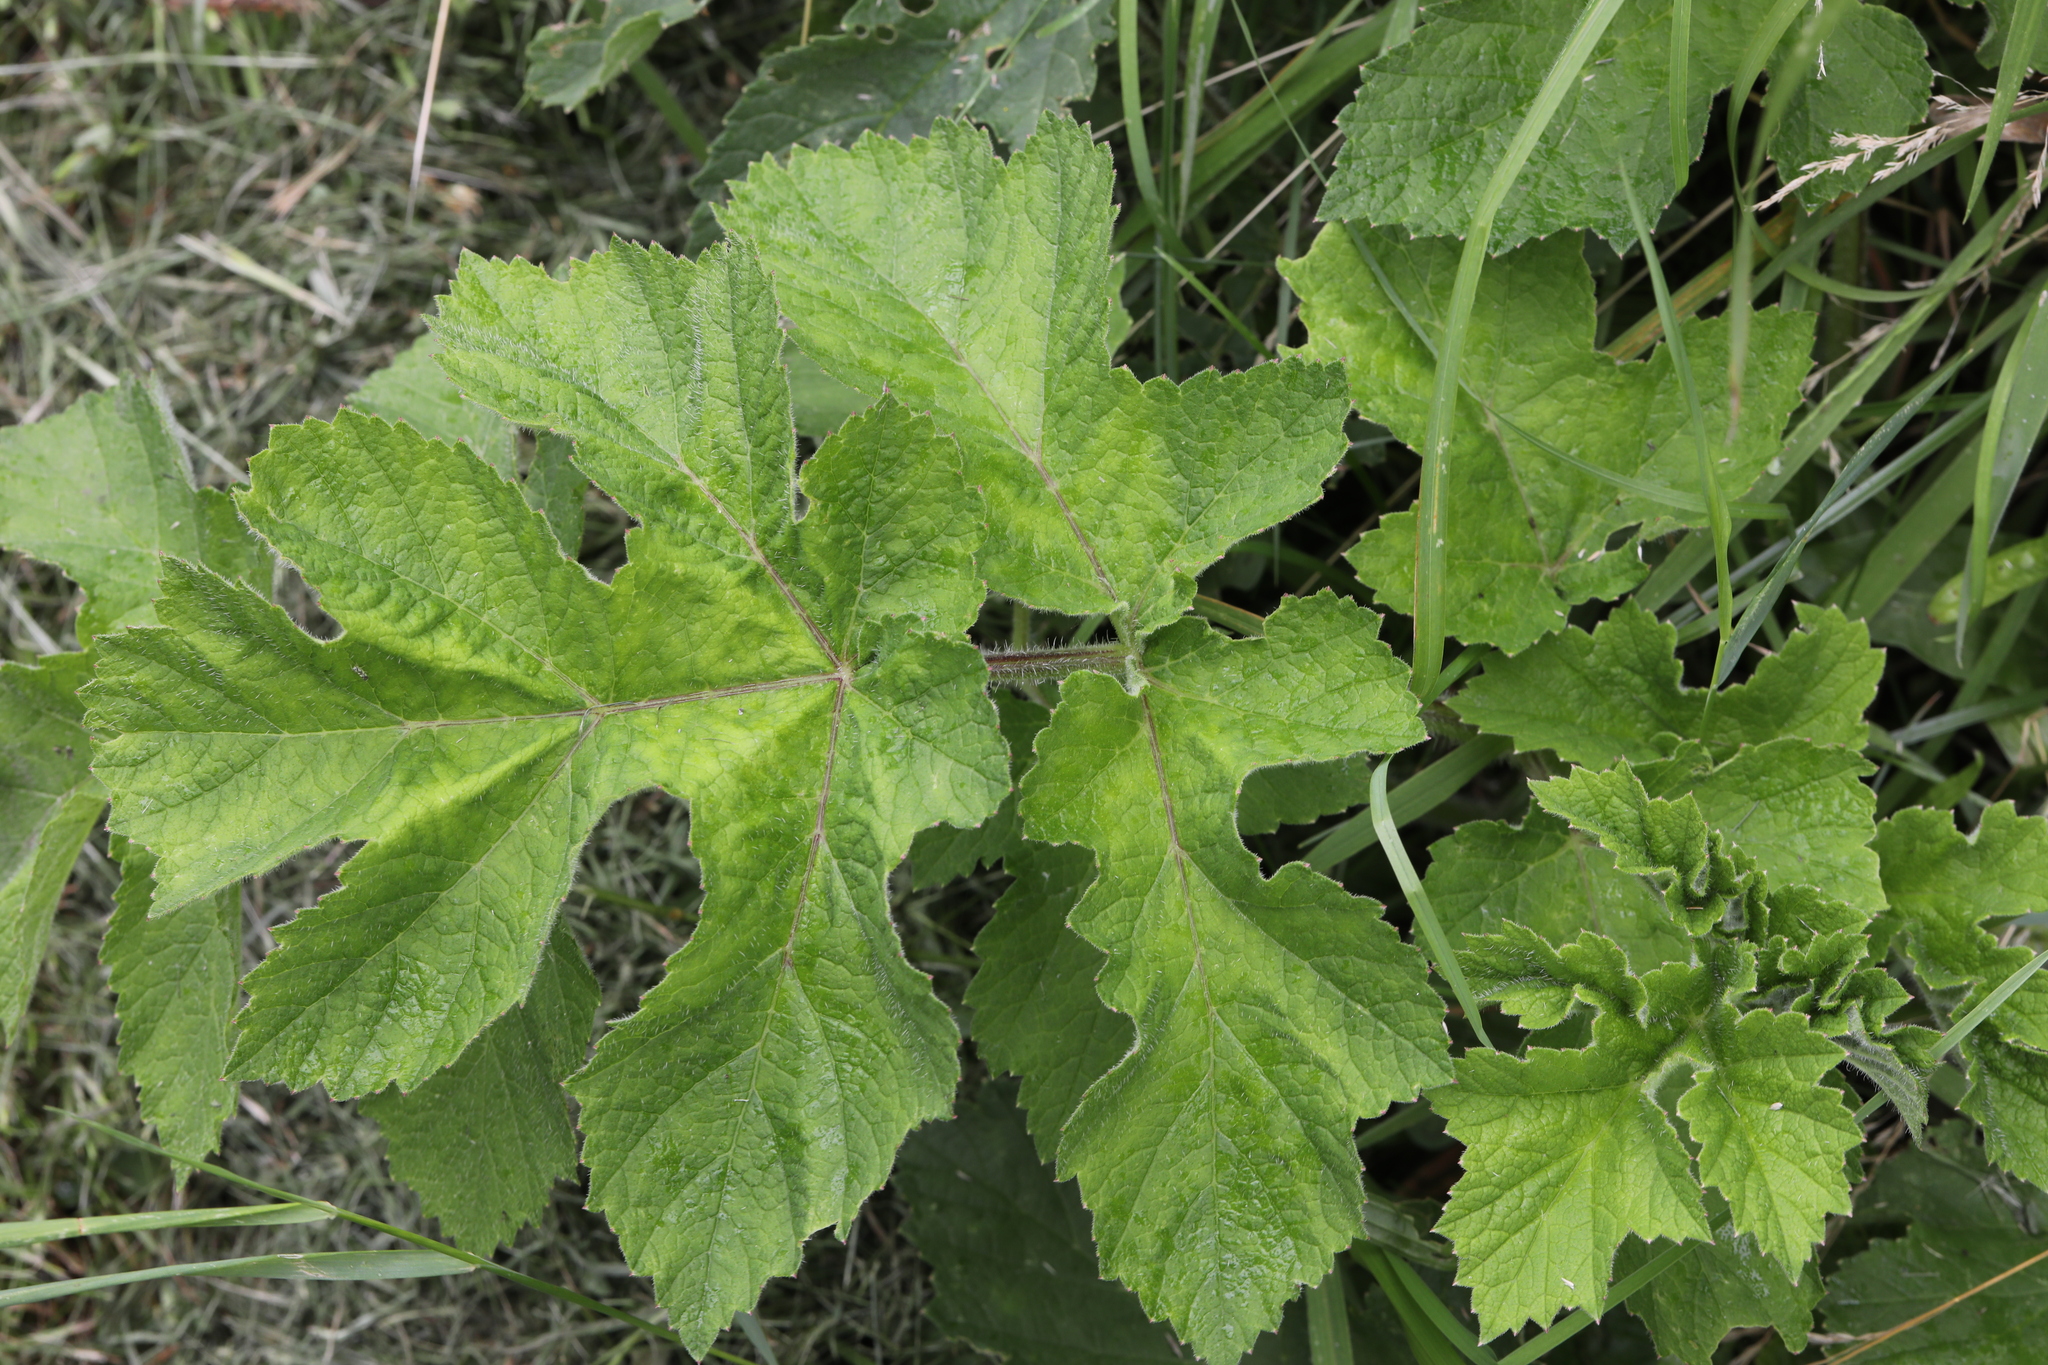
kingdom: Plantae
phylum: Tracheophyta
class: Magnoliopsida
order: Apiales
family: Apiaceae
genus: Heracleum
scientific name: Heracleum sphondylium
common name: Hogweed
